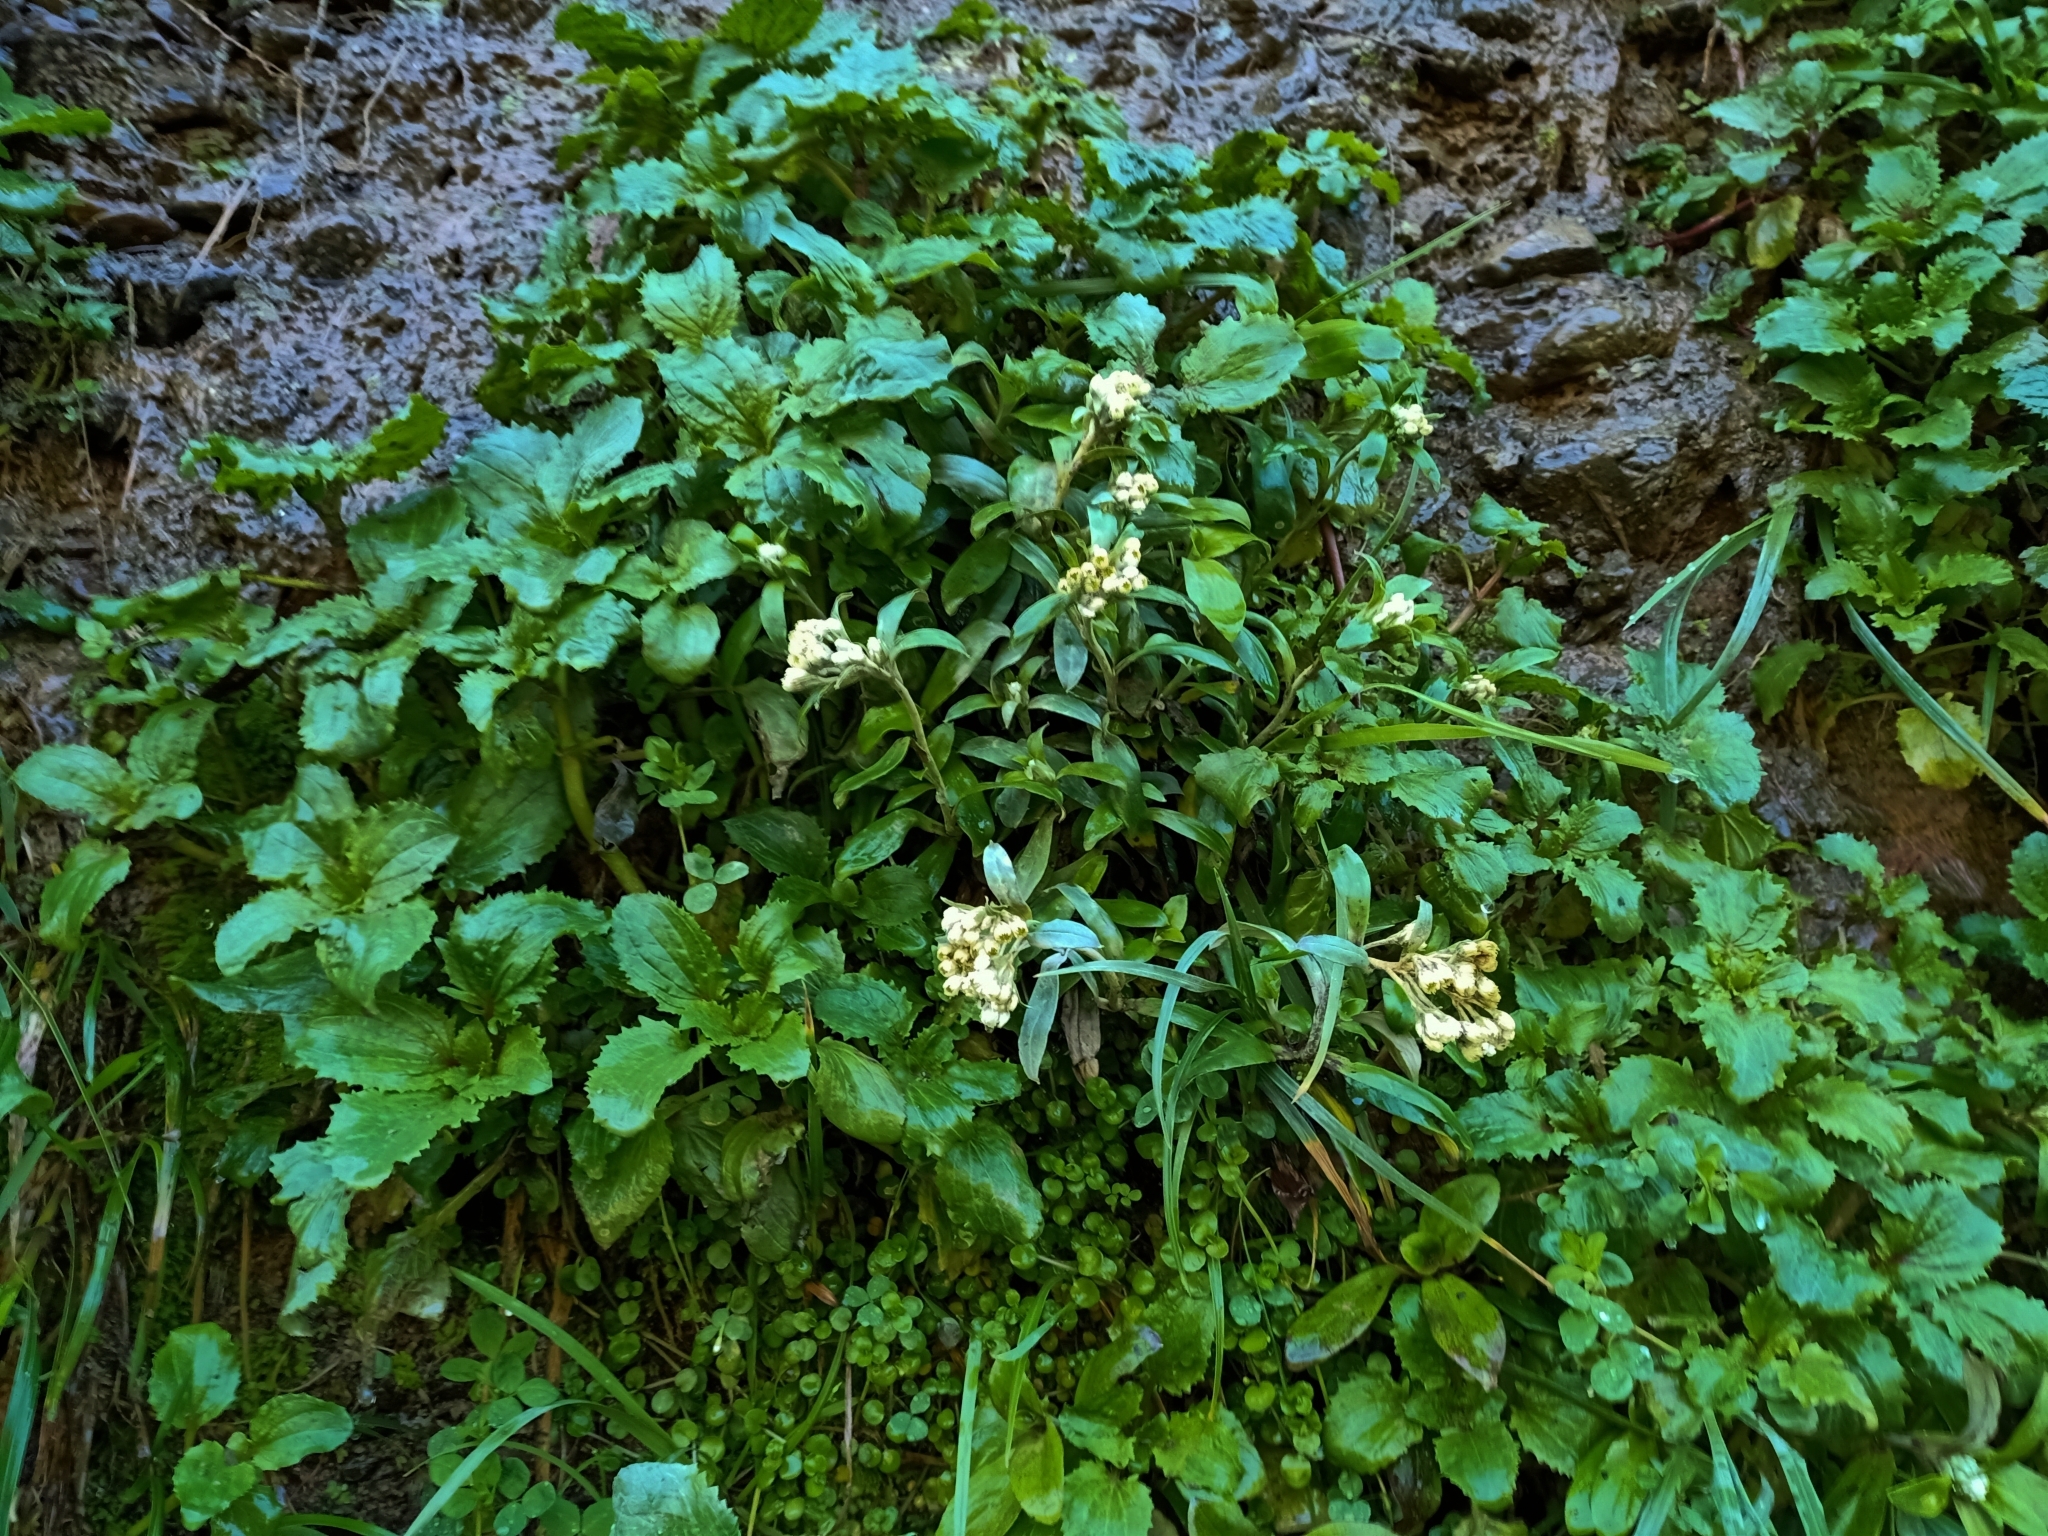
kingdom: Plantae
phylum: Tracheophyta
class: Magnoliopsida
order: Asterales
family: Asteraceae
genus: Anaphalioides
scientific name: Anaphalioides trinervis
